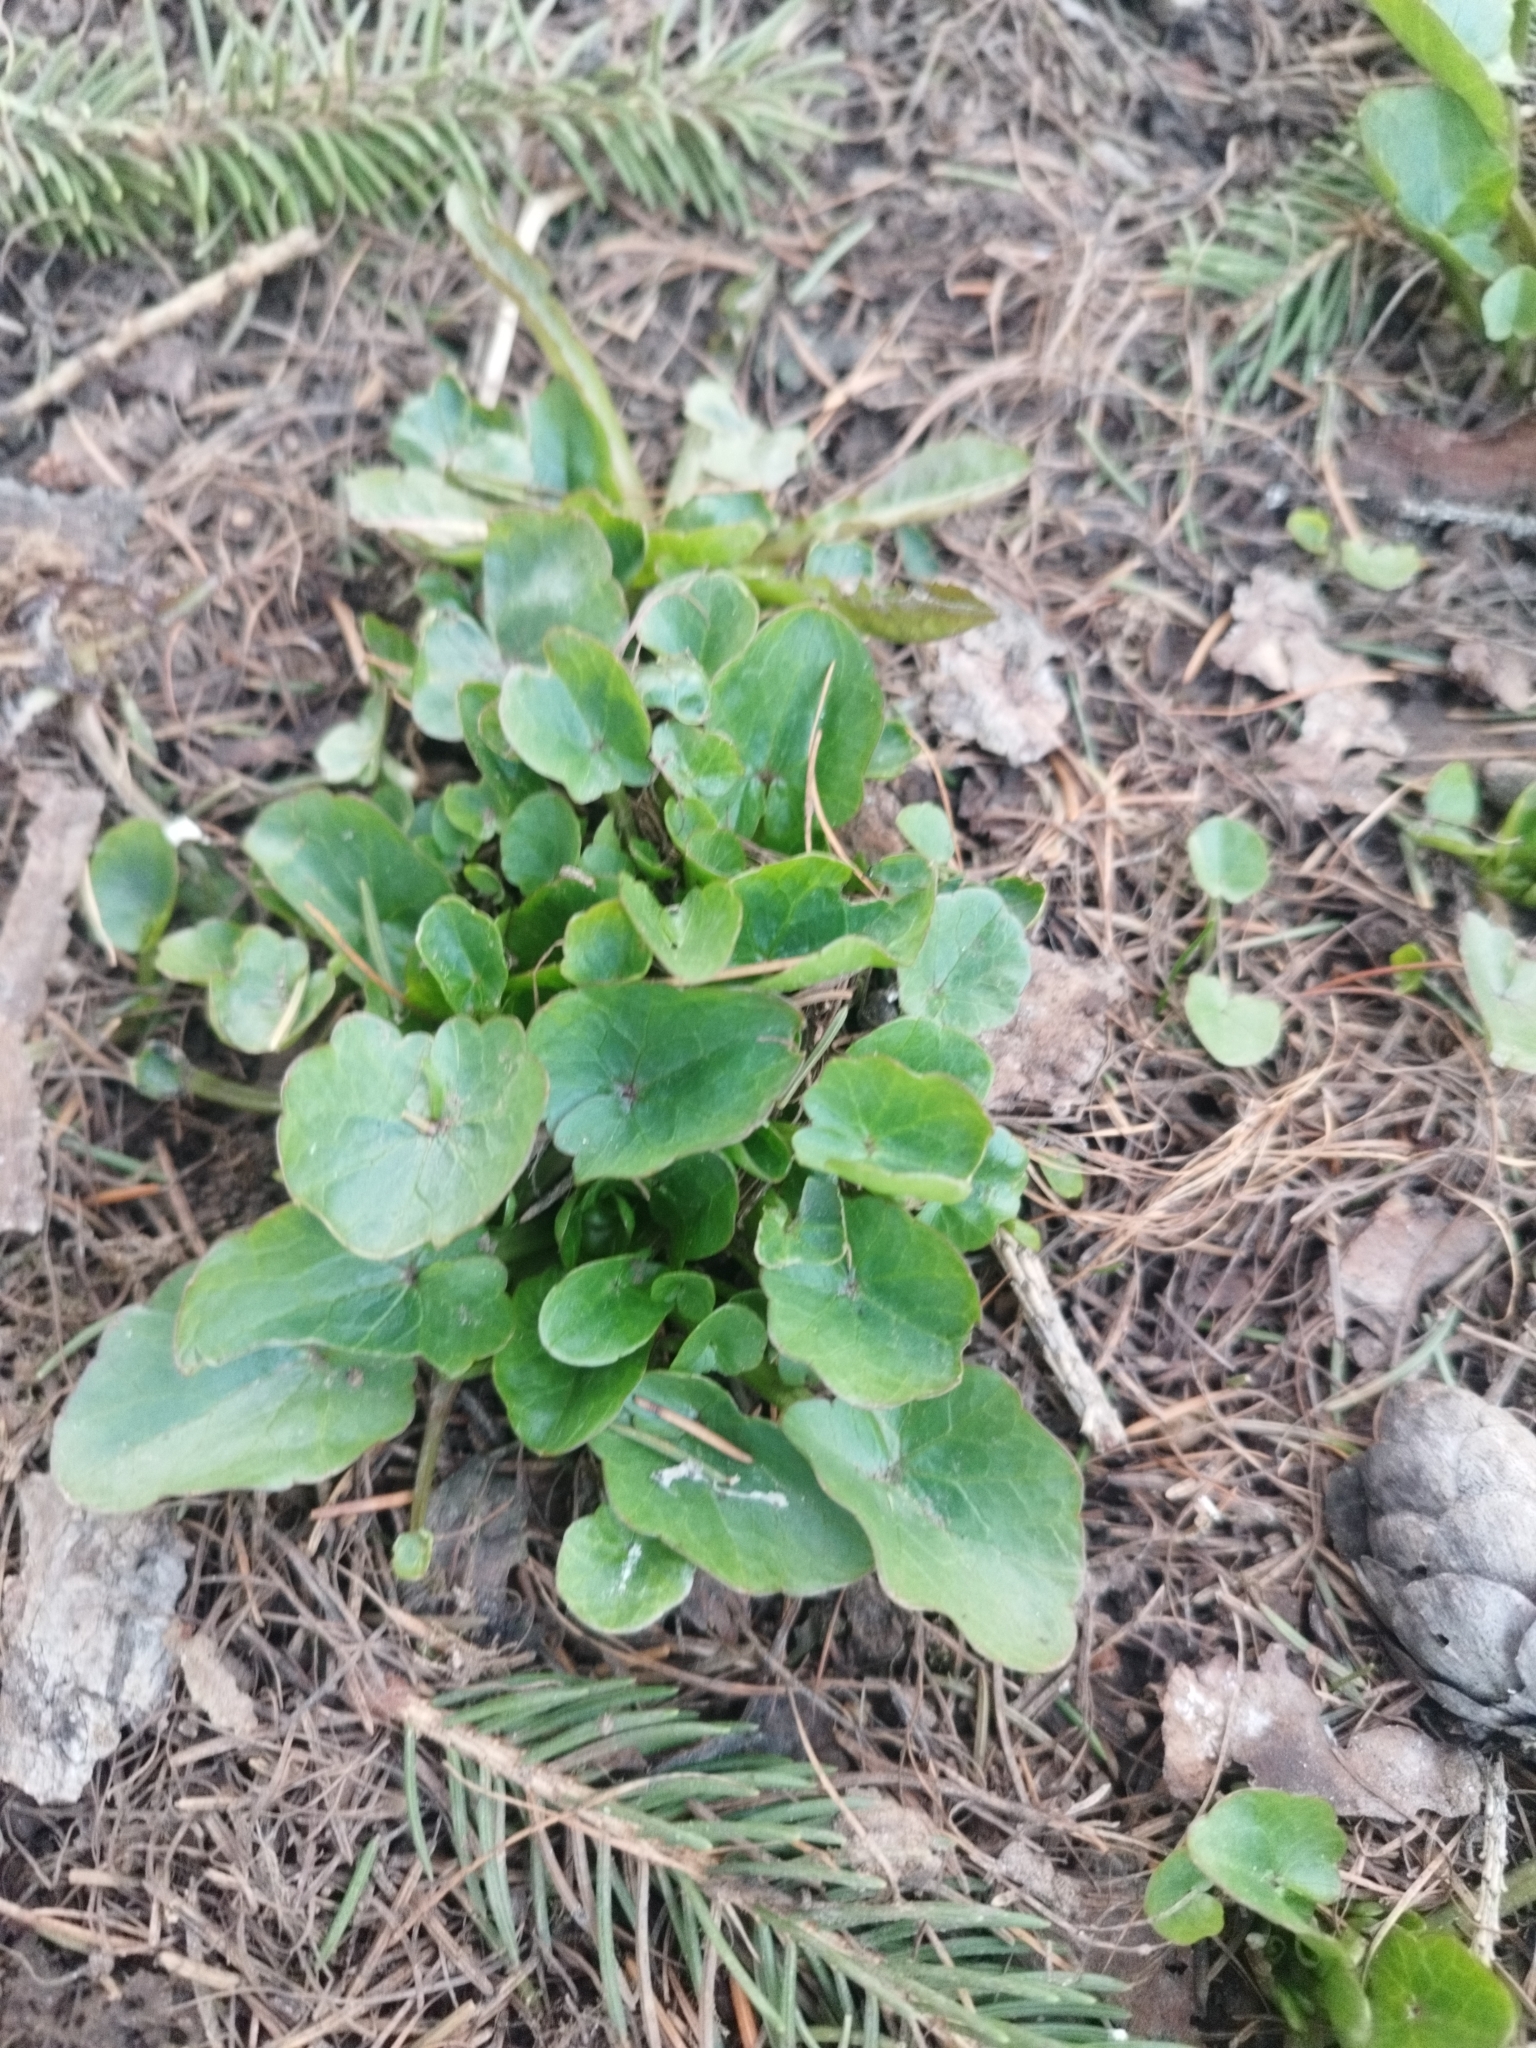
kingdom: Plantae
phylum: Tracheophyta
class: Magnoliopsida
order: Ranunculales
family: Ranunculaceae
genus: Ficaria
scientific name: Ficaria verna
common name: Lesser celandine
